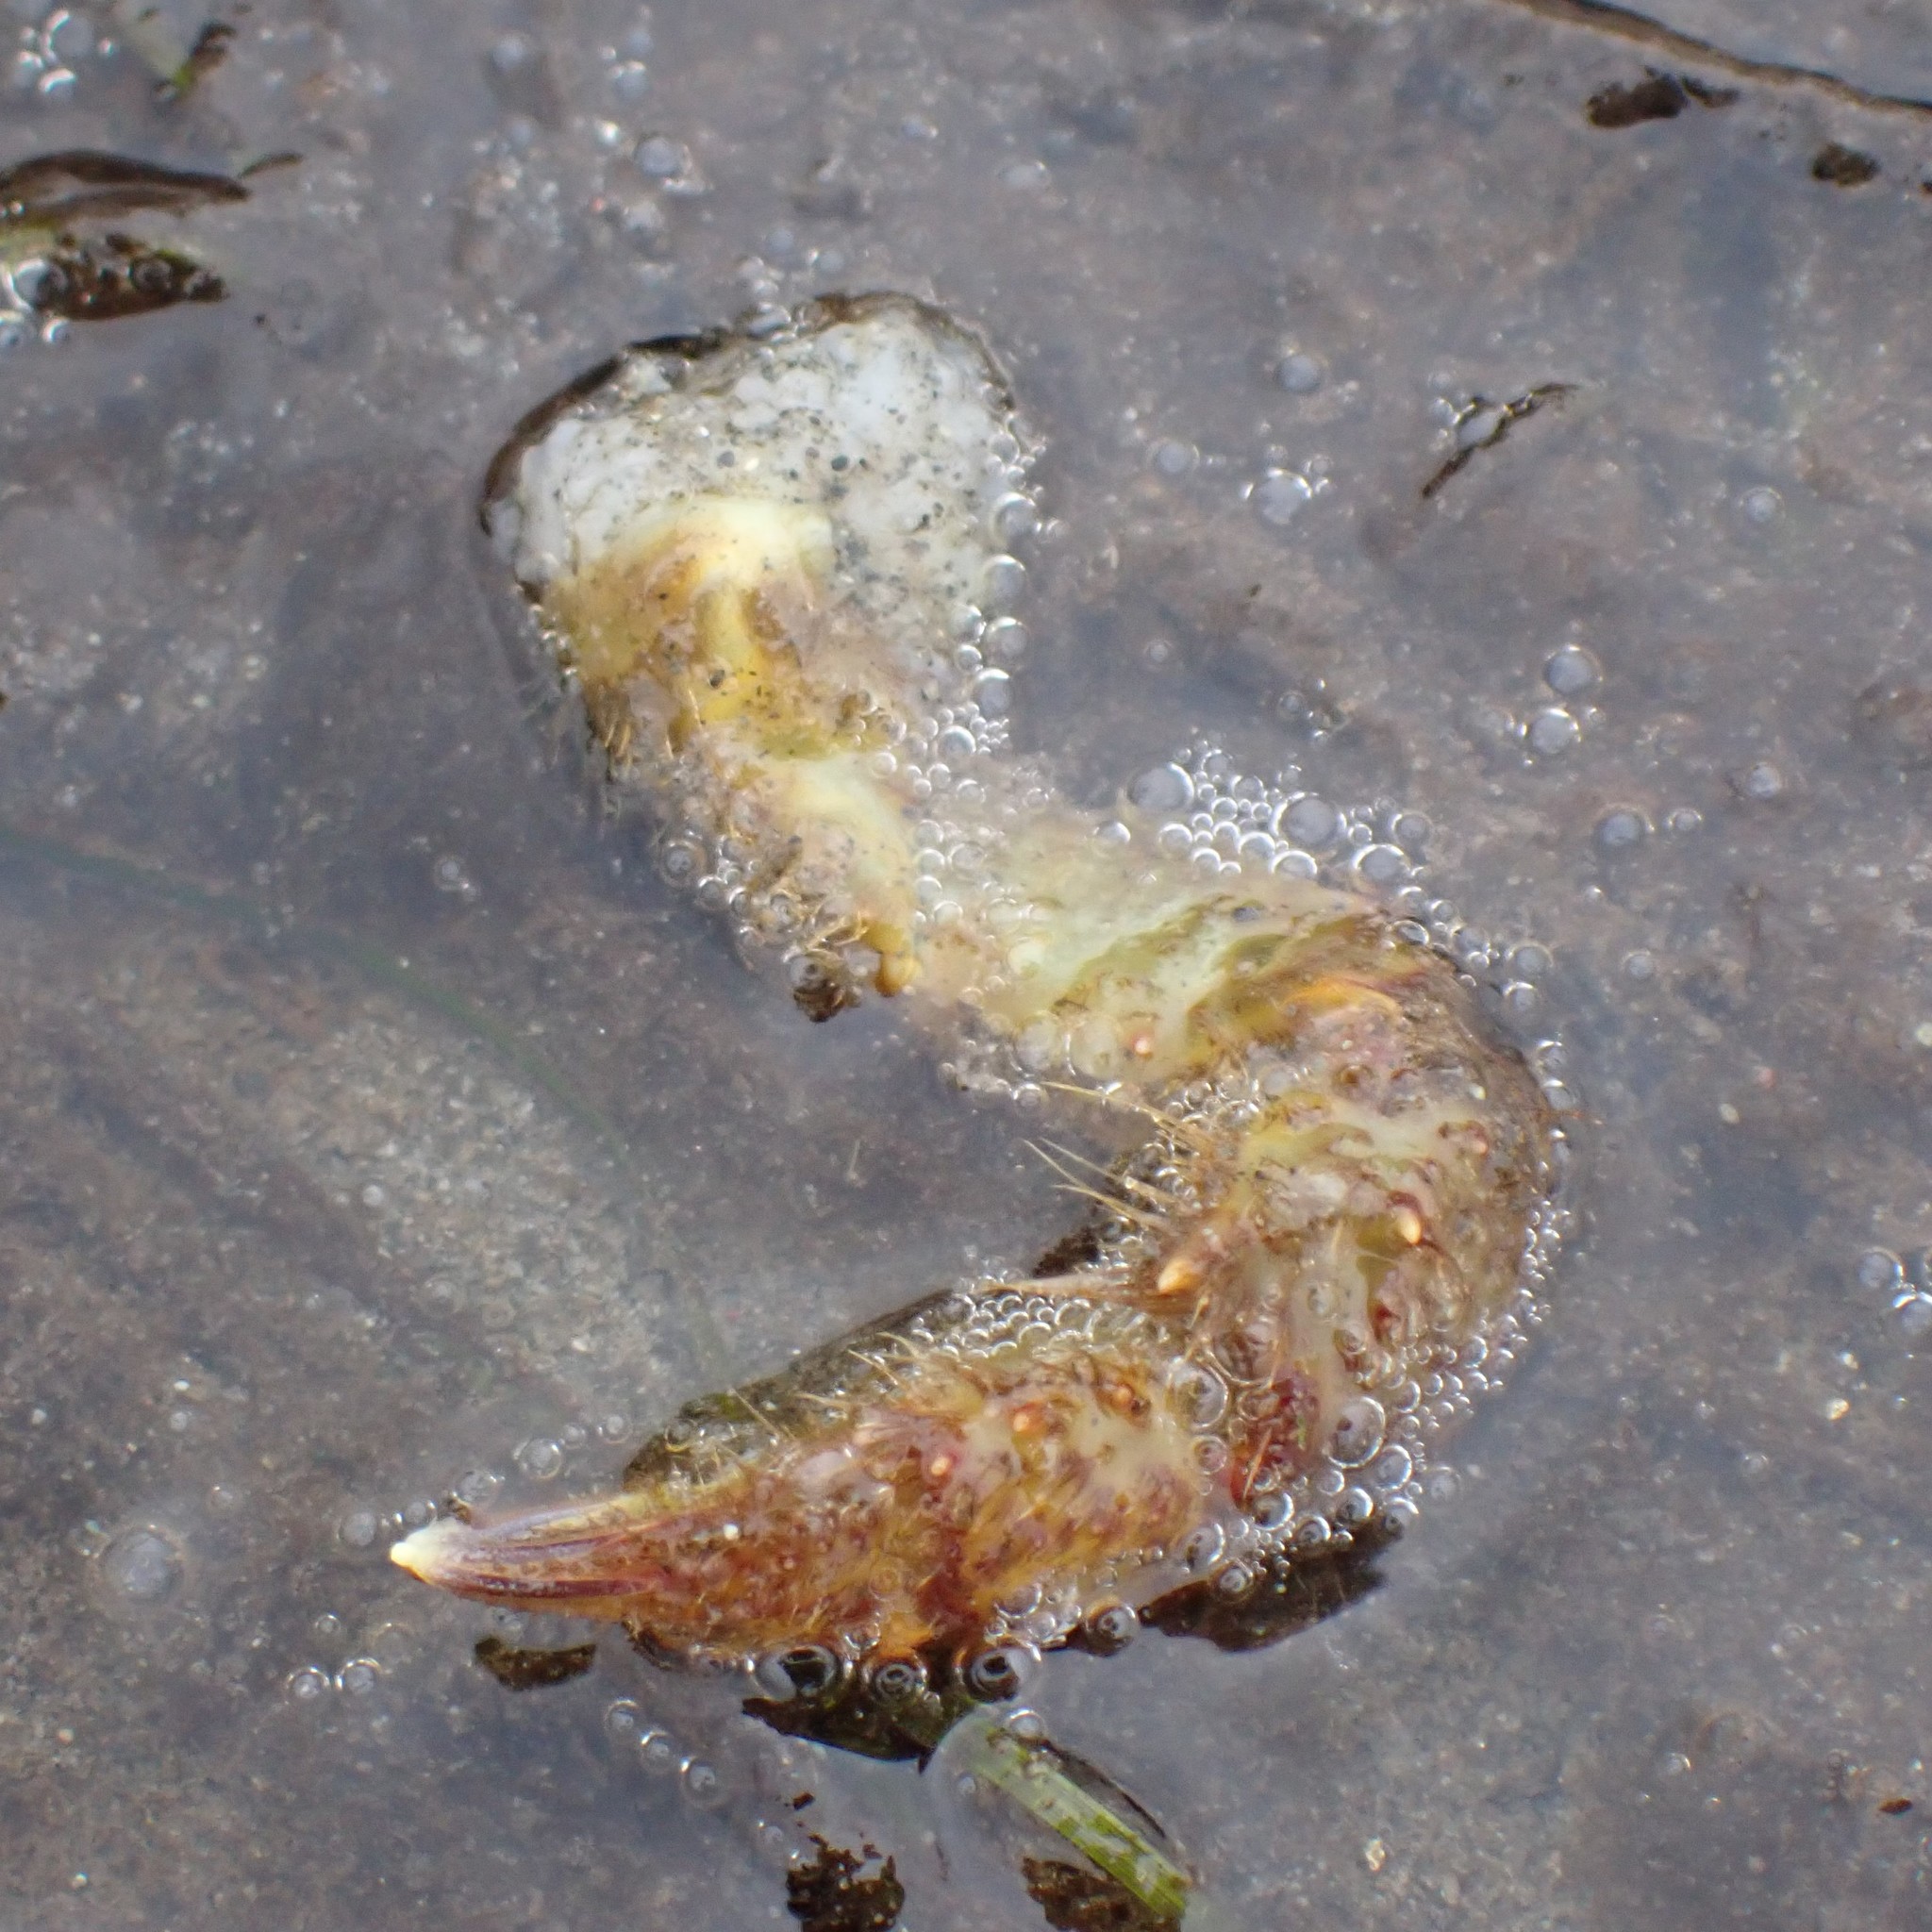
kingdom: Animalia
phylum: Arthropoda
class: Malacostraca
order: Decapoda
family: Cheiragonidae
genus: Telmessus
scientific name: Telmessus cheiragonus
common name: Helmet crab
